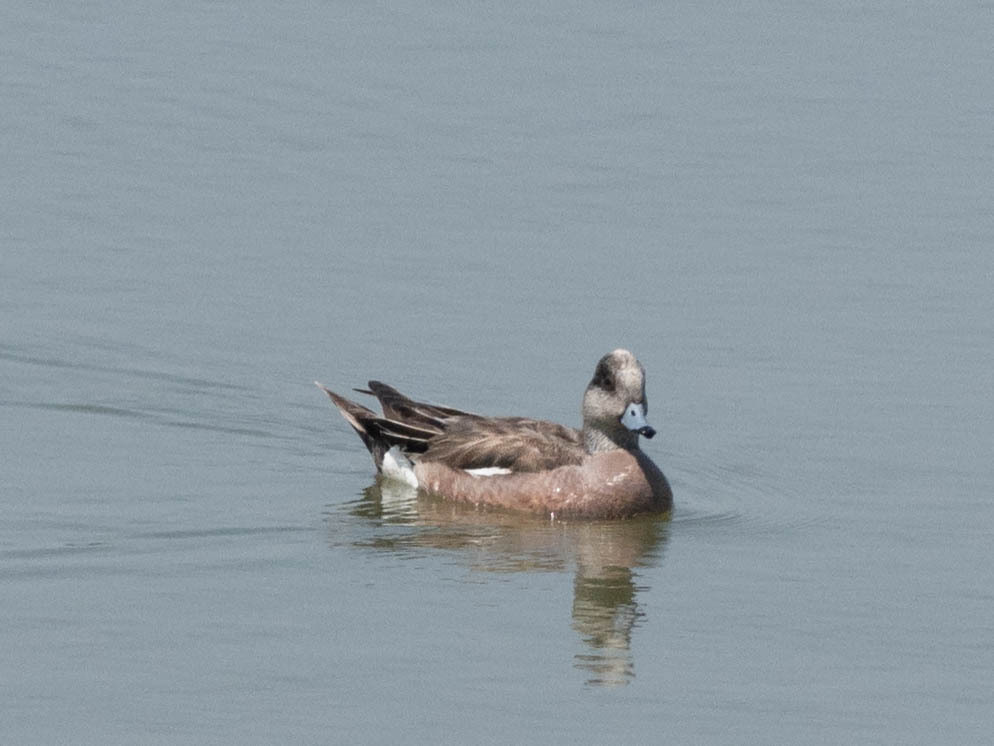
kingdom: Animalia
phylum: Chordata
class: Aves
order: Anseriformes
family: Anatidae
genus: Mareca
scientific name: Mareca americana
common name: American wigeon
